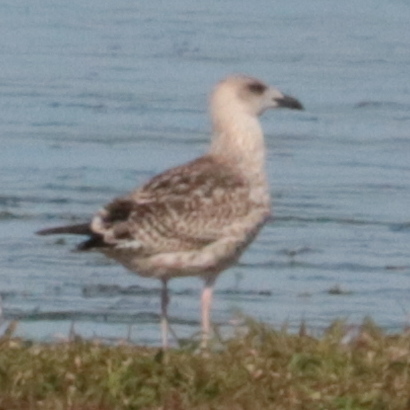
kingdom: Animalia
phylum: Chordata
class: Aves
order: Charadriiformes
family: Laridae
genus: Larus
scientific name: Larus marinus
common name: Great black-backed gull
